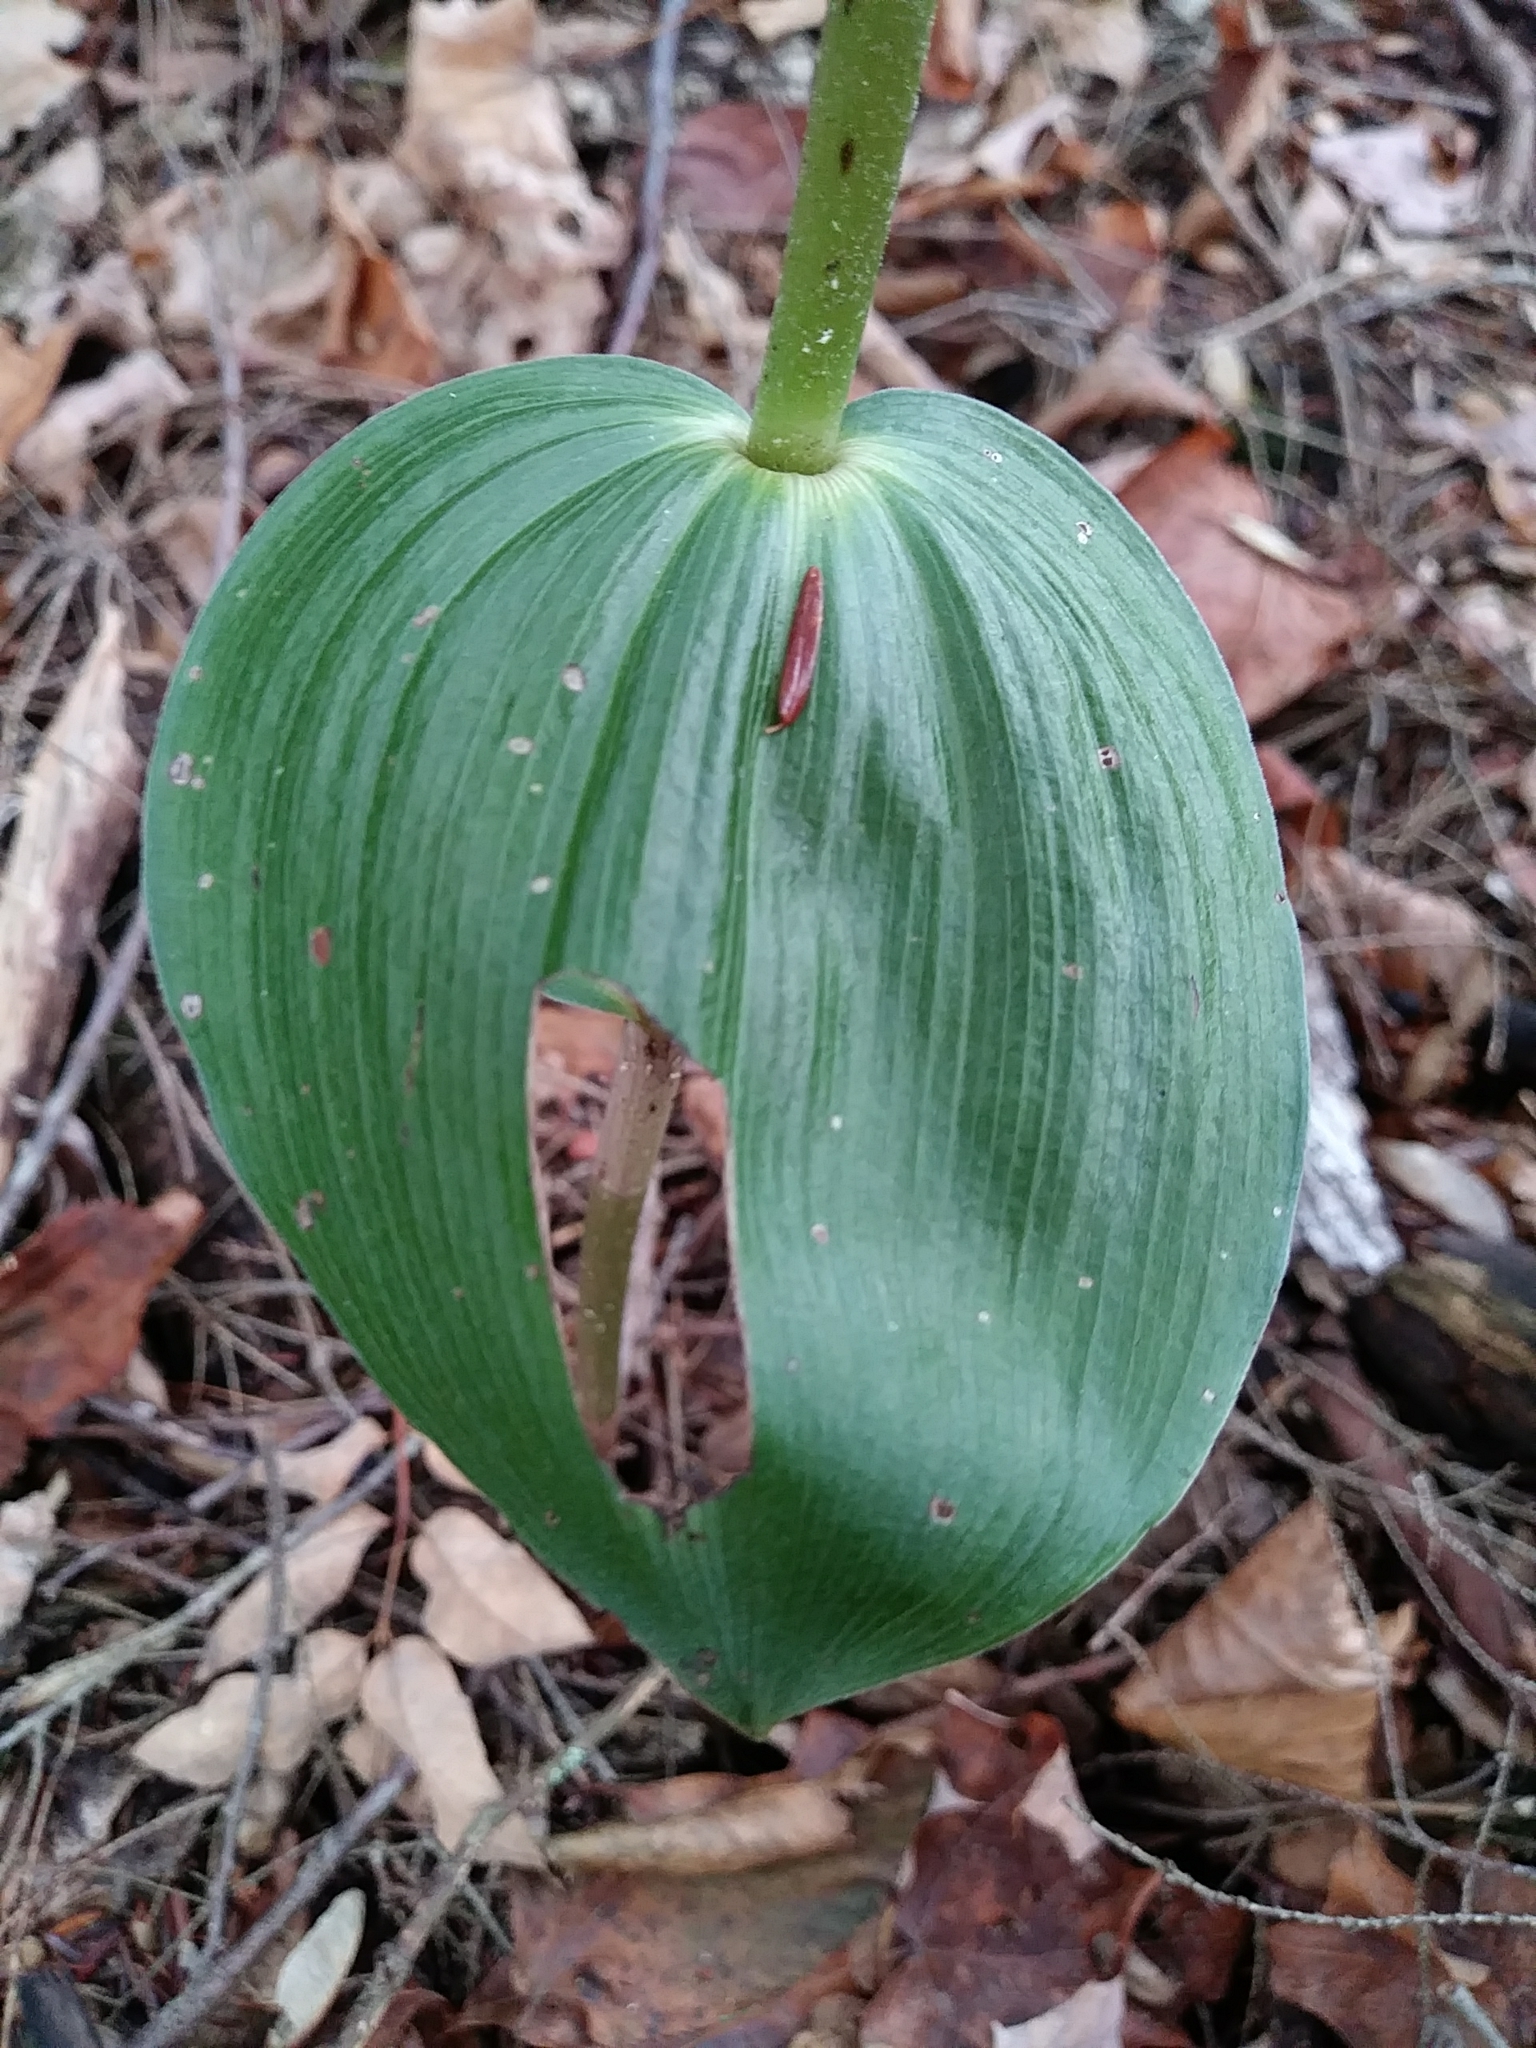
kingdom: Plantae
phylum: Tracheophyta
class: Liliopsida
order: Asparagales
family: Orchidaceae
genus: Epipactis
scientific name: Epipactis helleborine
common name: Broad-leaved helleborine
